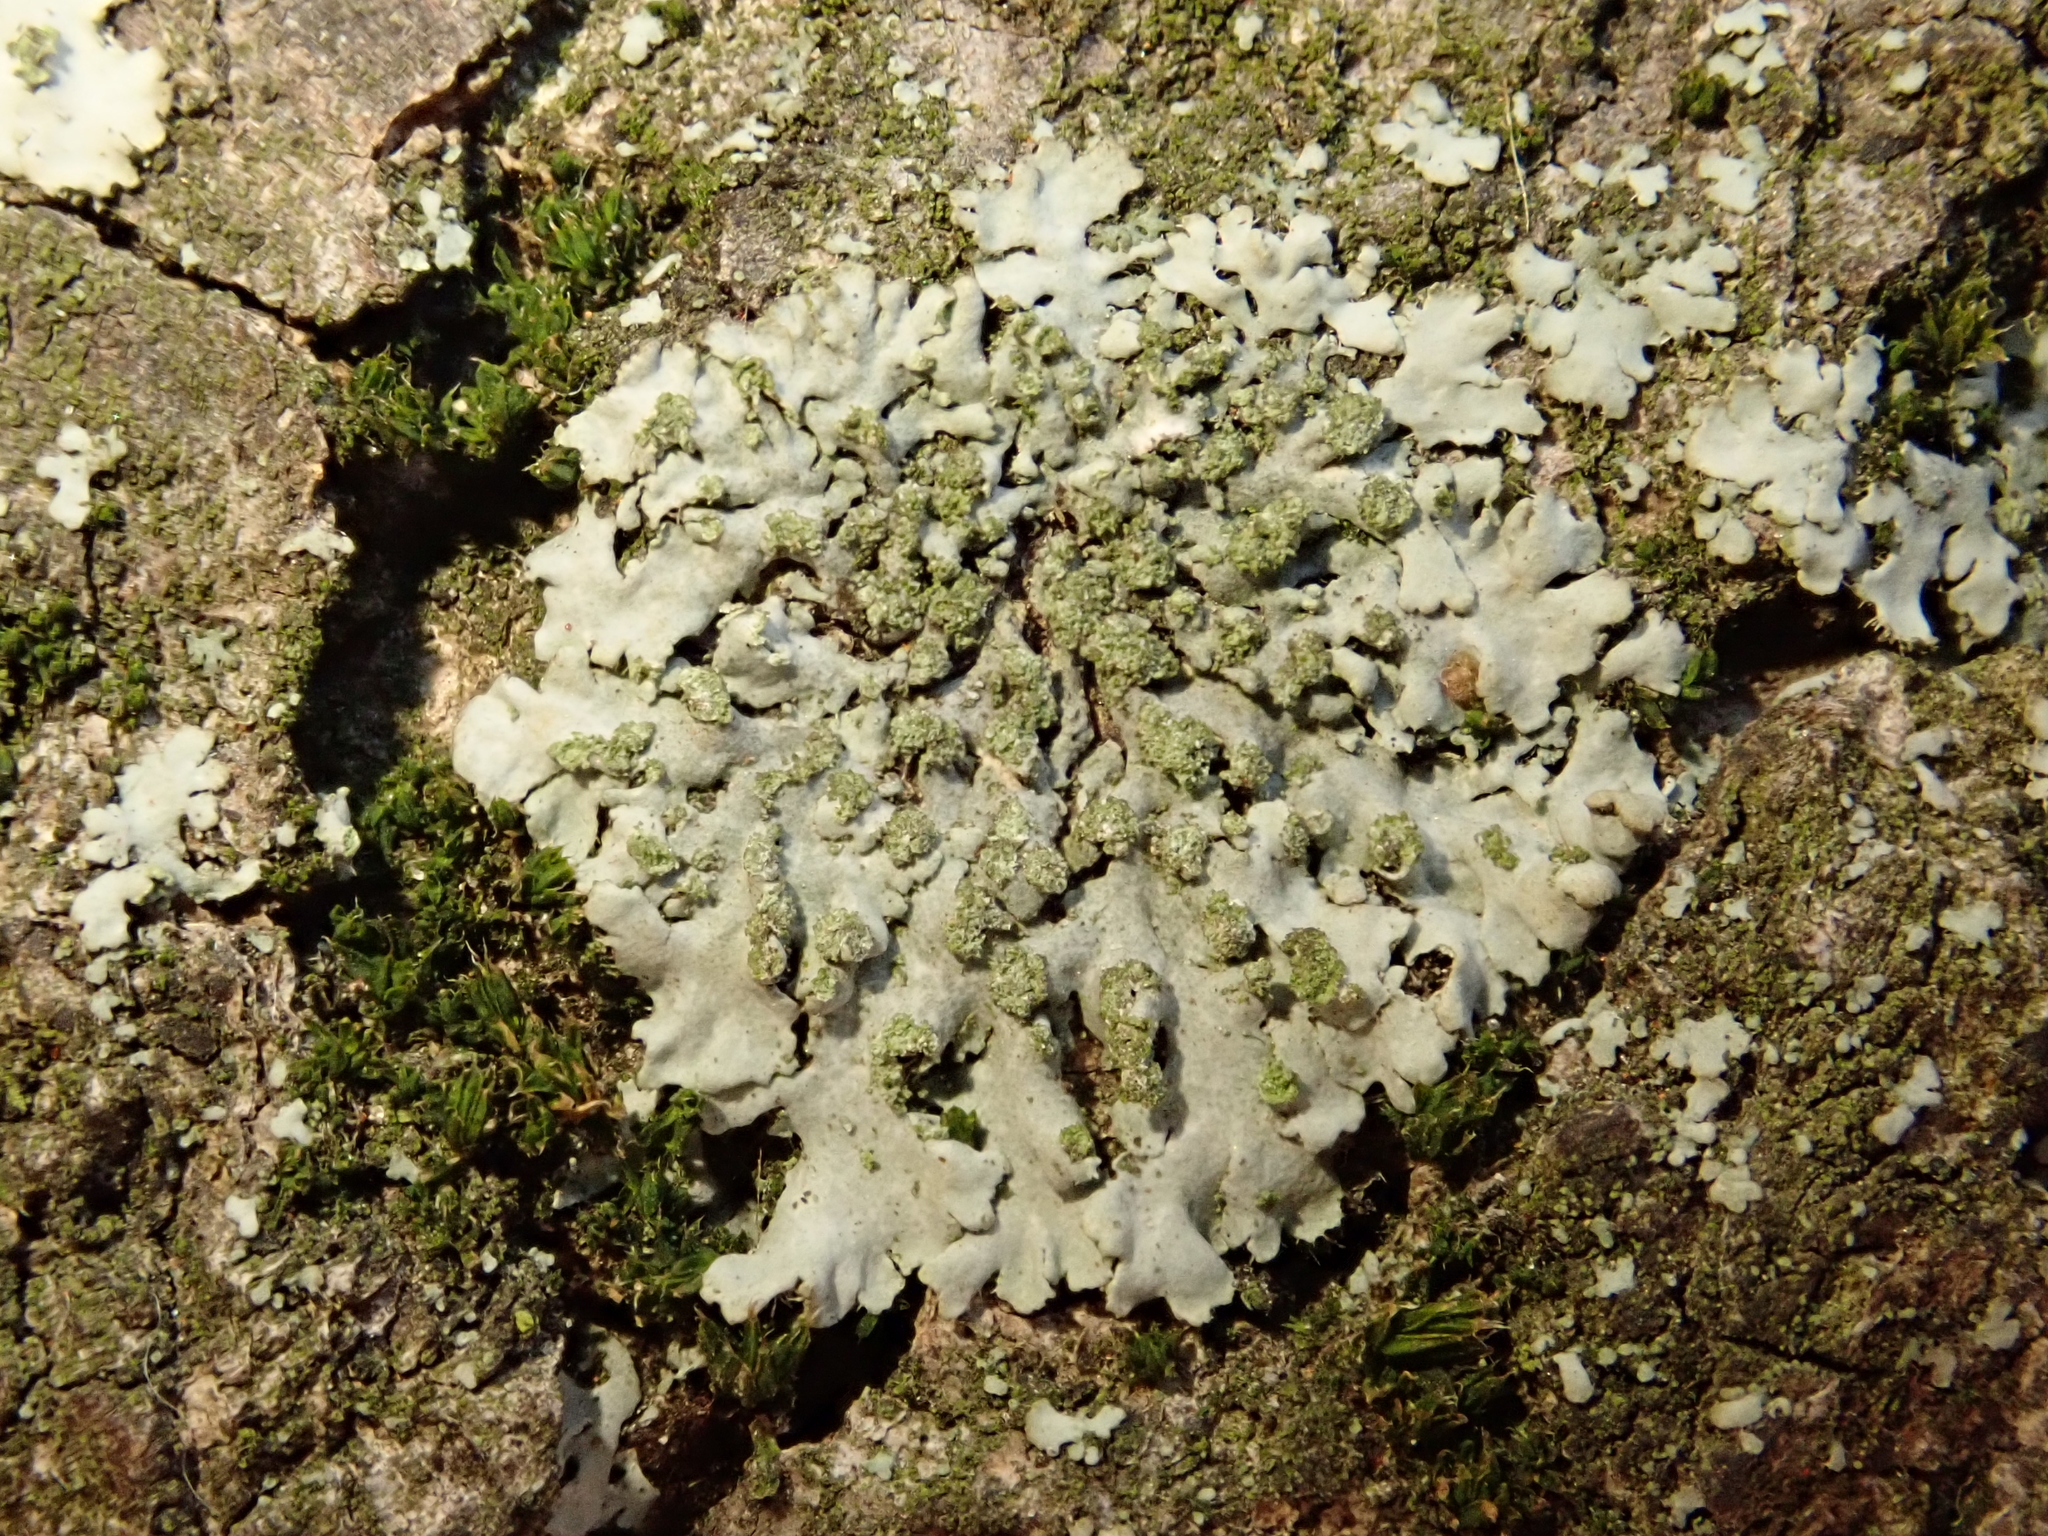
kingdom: Fungi
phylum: Ascomycota
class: Lecanoromycetes
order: Caliciales
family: Physciaceae
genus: Phaeophyscia
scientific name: Phaeophyscia orbicularis
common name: Mealy shadow lichen
